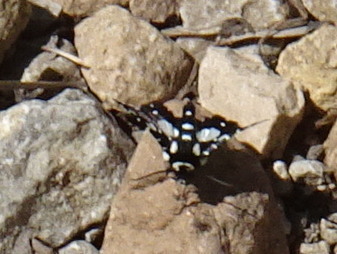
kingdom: Animalia
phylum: Arthropoda
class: Insecta
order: Lepidoptera
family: Thyrididae
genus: Pseudothyris
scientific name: Pseudothyris sepulchralis
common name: Mournful thyris moth
